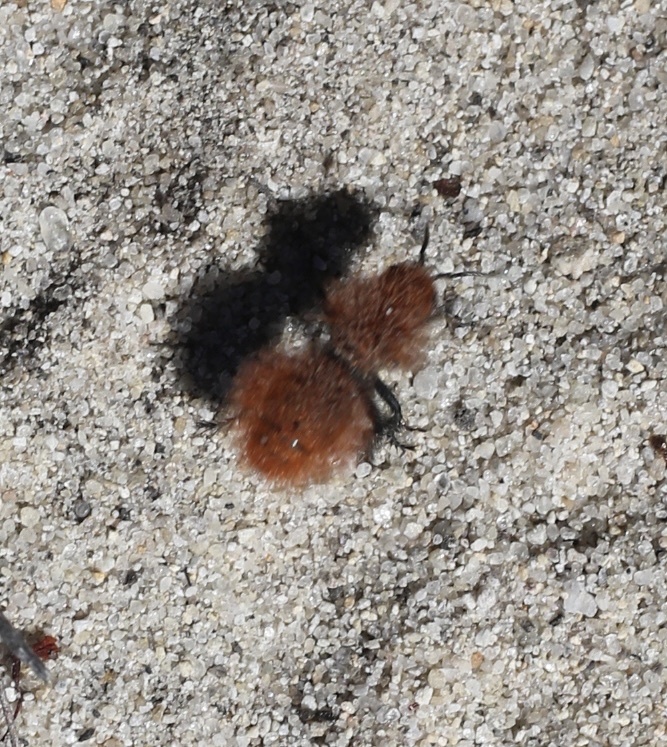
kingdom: Animalia
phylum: Arthropoda
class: Insecta
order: Hymenoptera
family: Mutillidae
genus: Dasymutilla
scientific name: Dasymutilla
